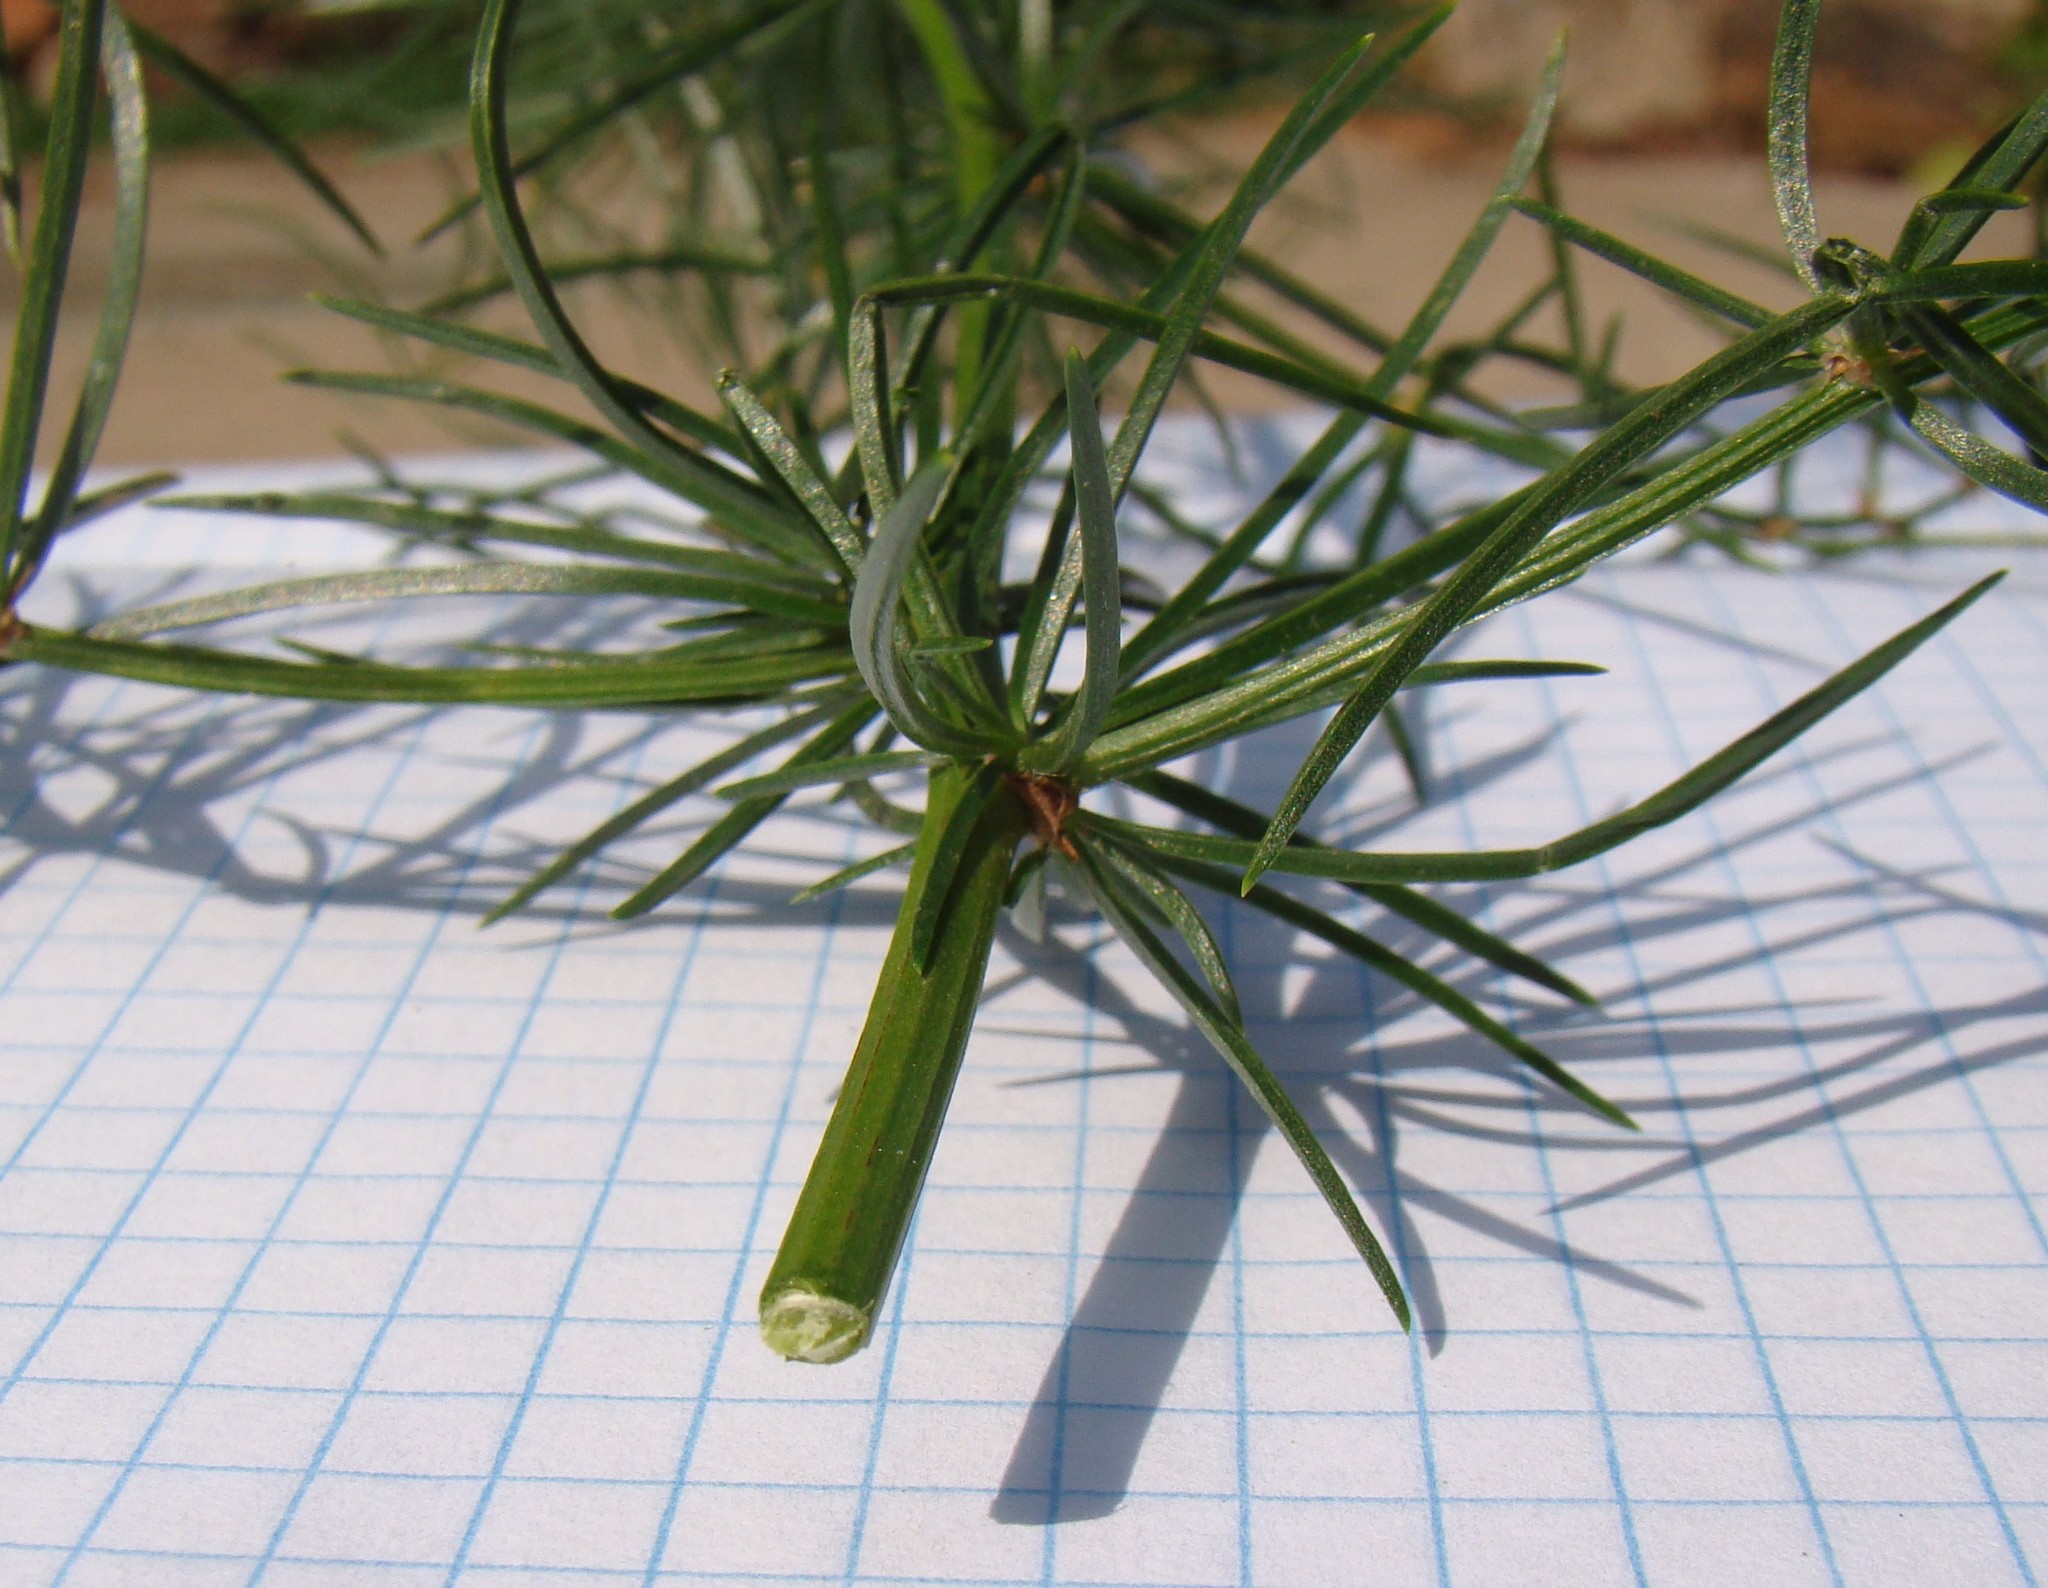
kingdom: Plantae
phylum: Tracheophyta
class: Liliopsida
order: Asparagales
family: Asparagaceae
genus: Asparagus
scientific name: Asparagus verticillatus
